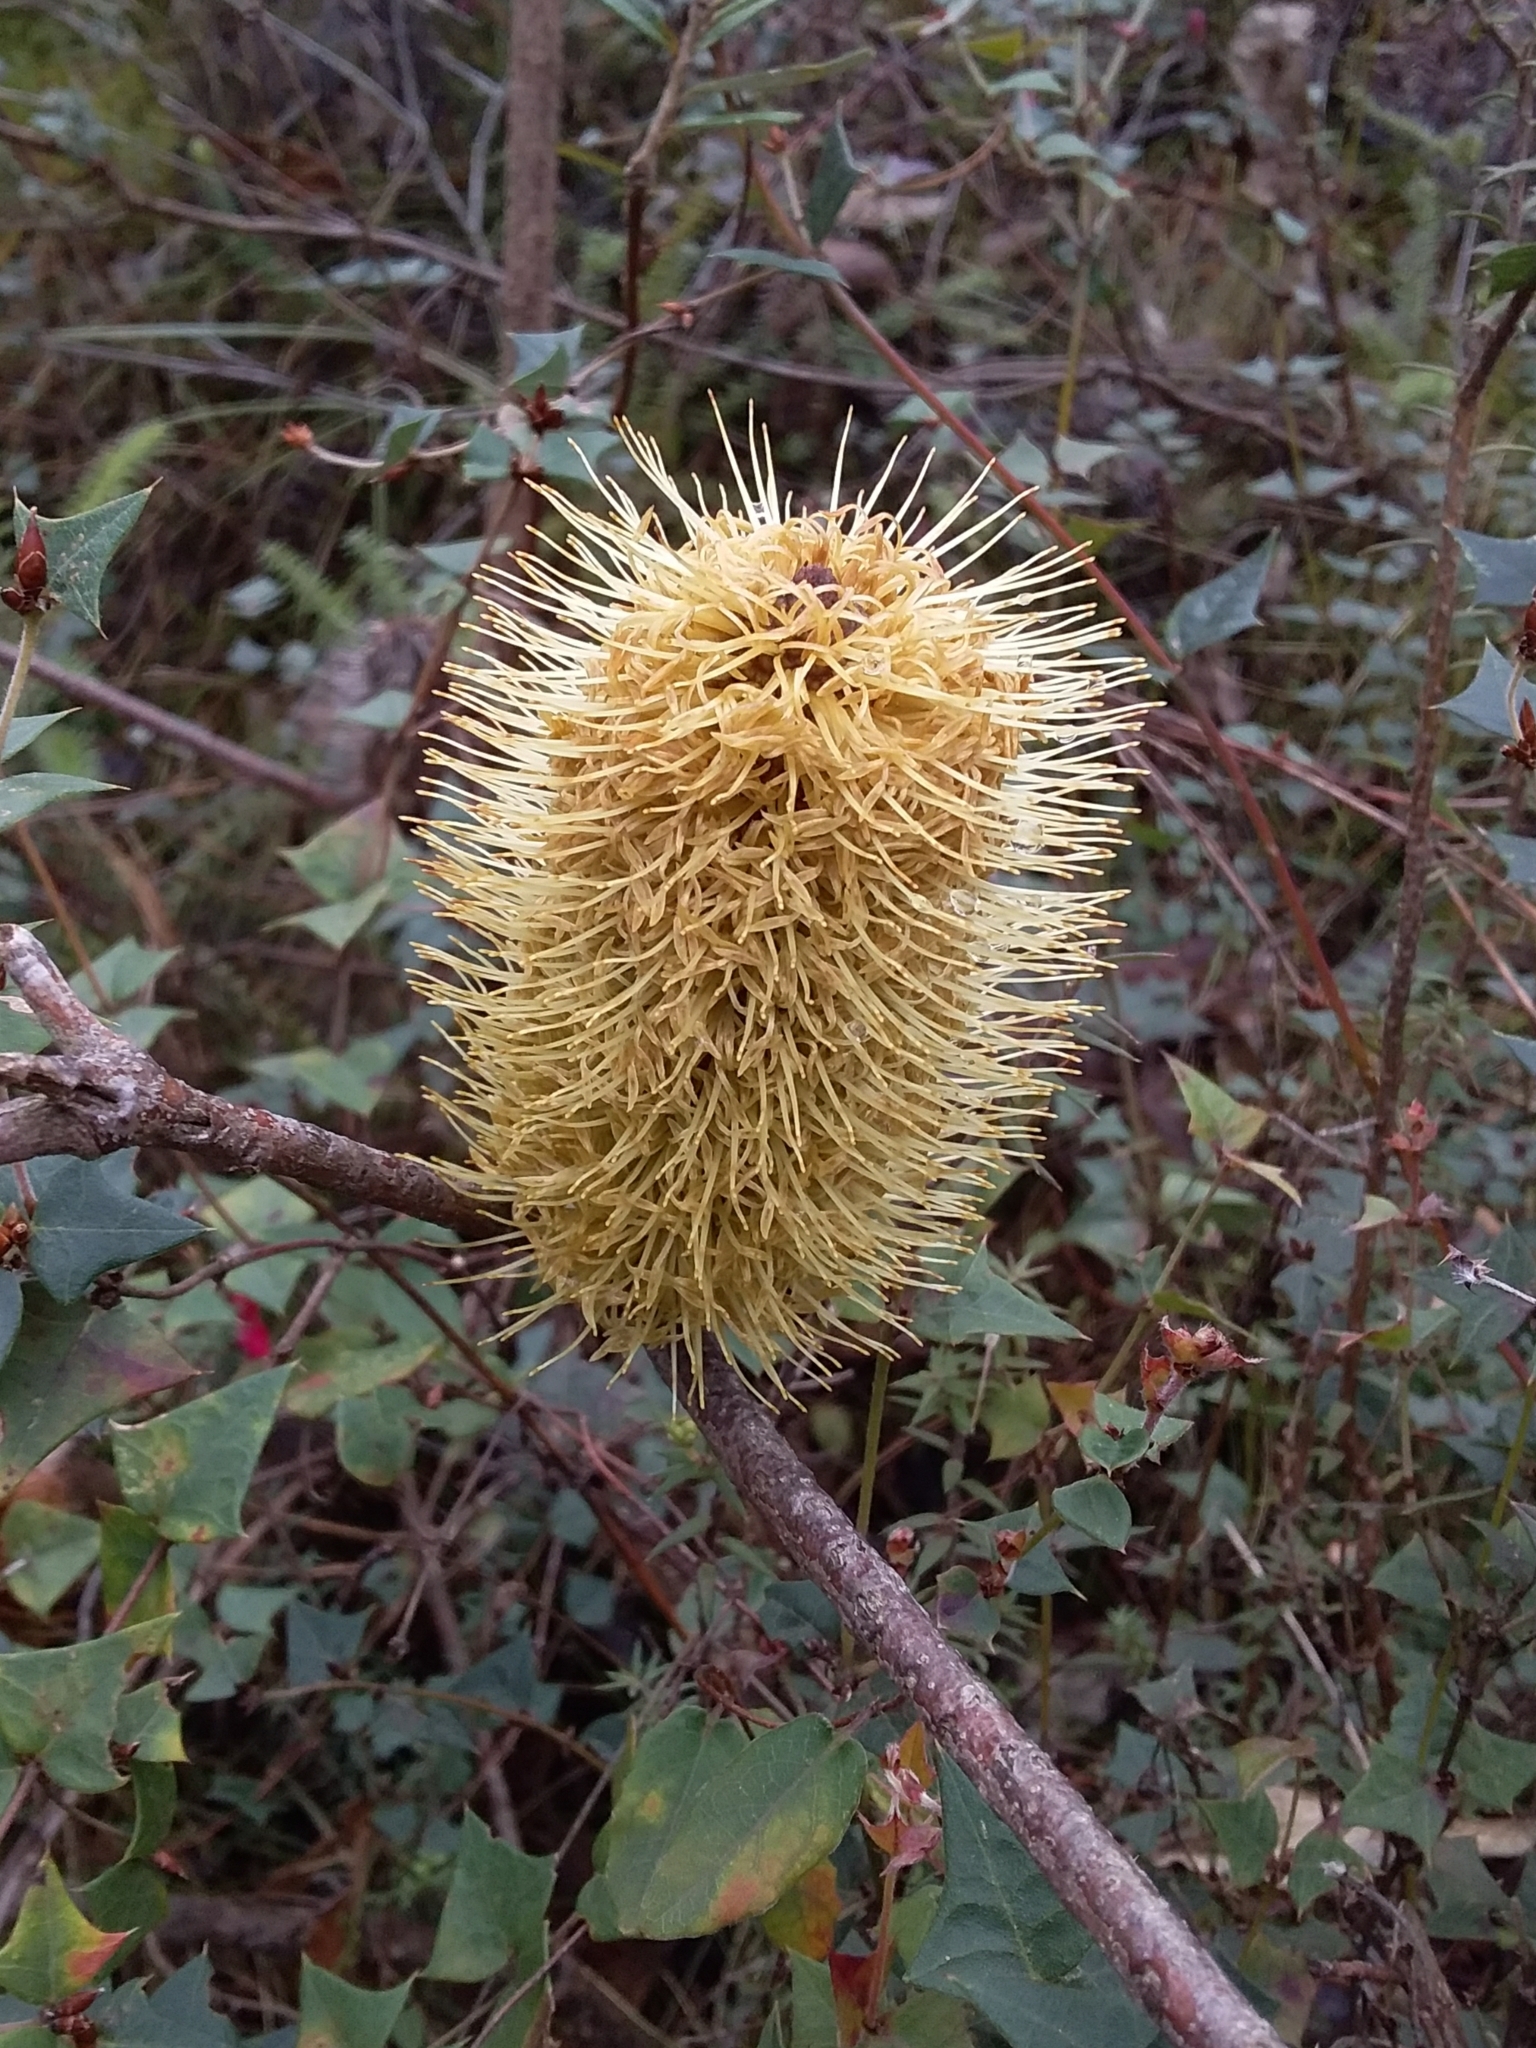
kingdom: Plantae
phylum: Tracheophyta
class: Magnoliopsida
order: Proteales
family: Proteaceae
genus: Banksia
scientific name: Banksia marginata
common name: Silver banksia
